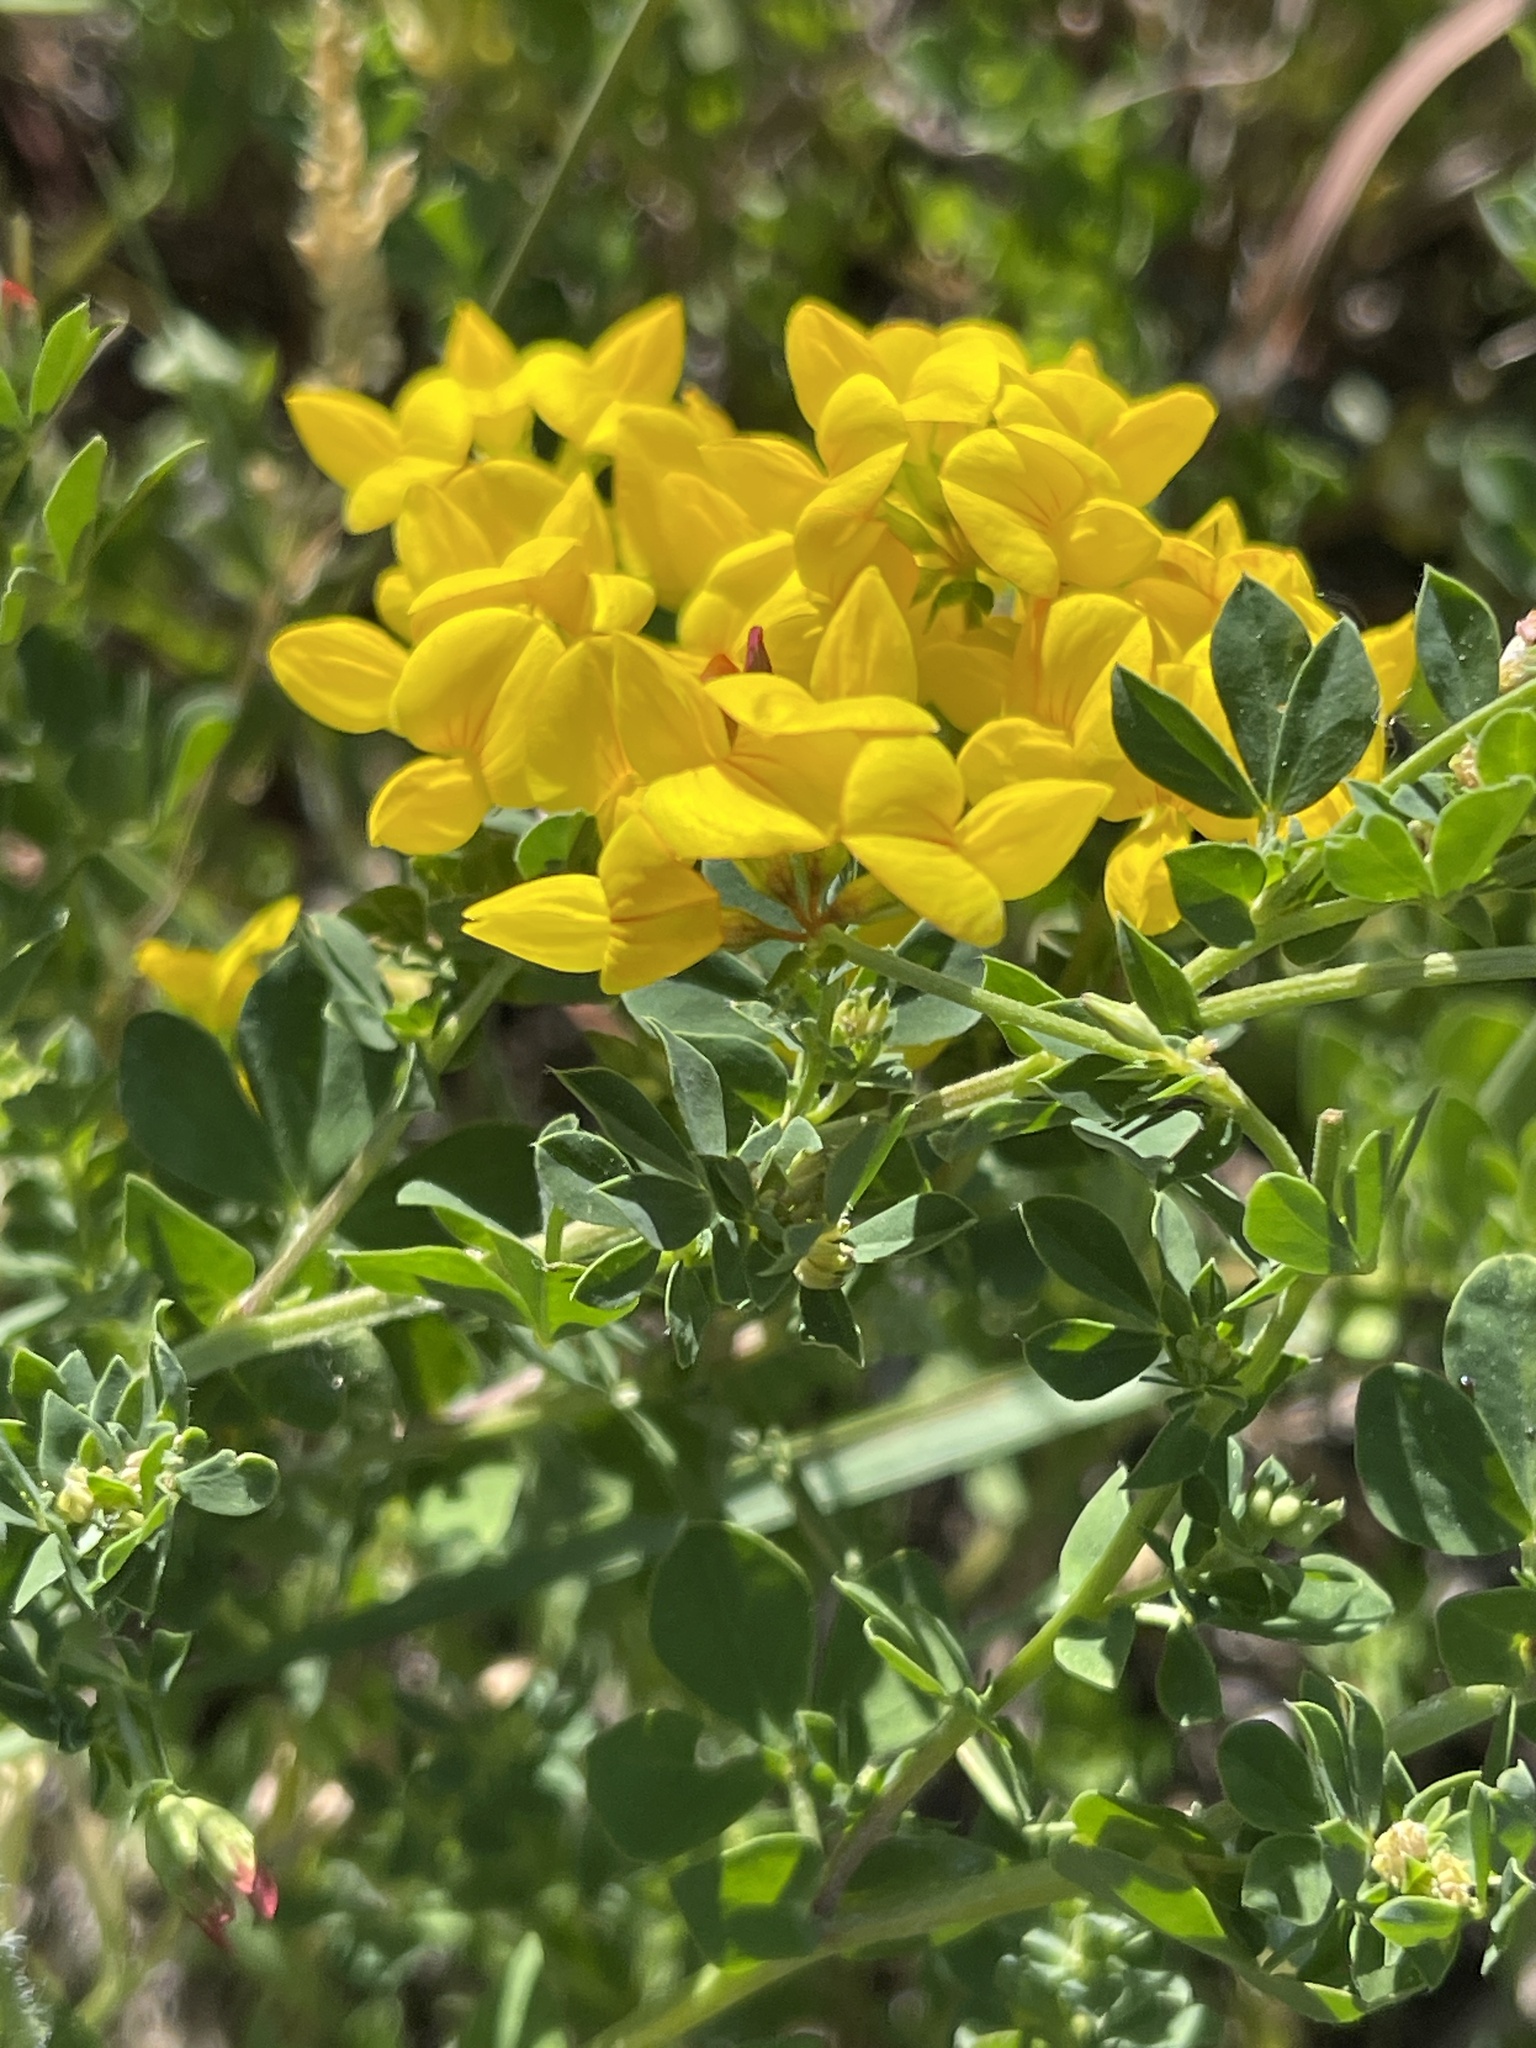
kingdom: Plantae
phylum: Tracheophyta
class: Magnoliopsida
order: Fabales
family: Fabaceae
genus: Lotus
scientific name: Lotus corniculatus
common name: Common bird's-foot-trefoil
